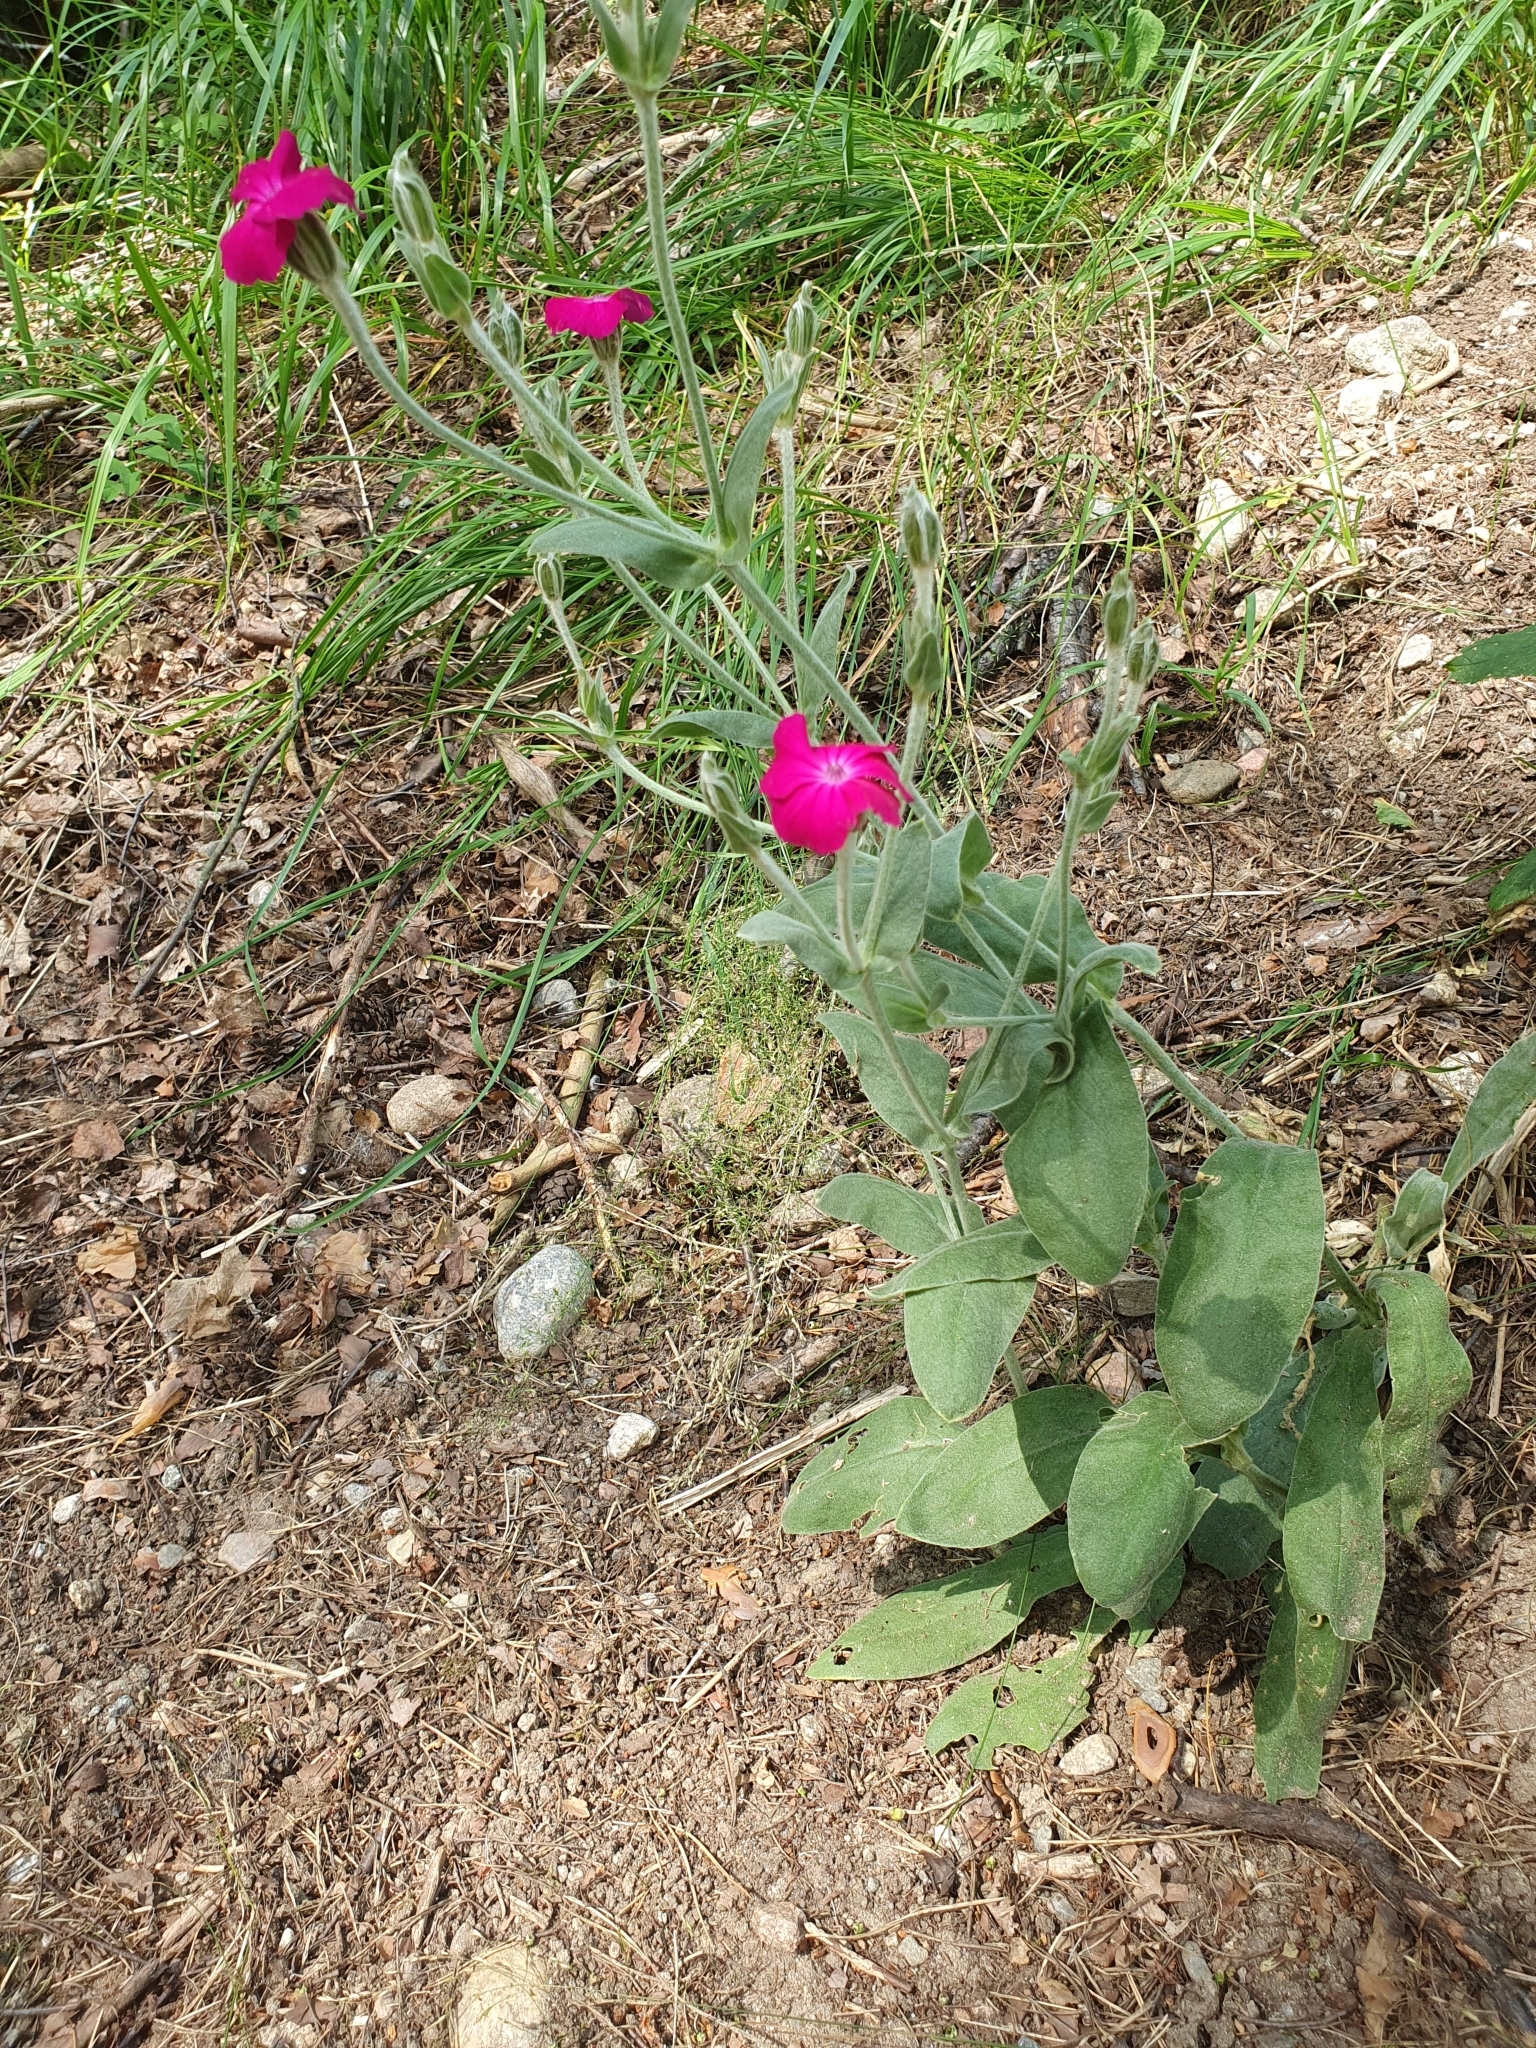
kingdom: Plantae
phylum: Tracheophyta
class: Magnoliopsida
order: Caryophyllales
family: Caryophyllaceae
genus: Silene
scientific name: Silene coronaria
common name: Rose campion
